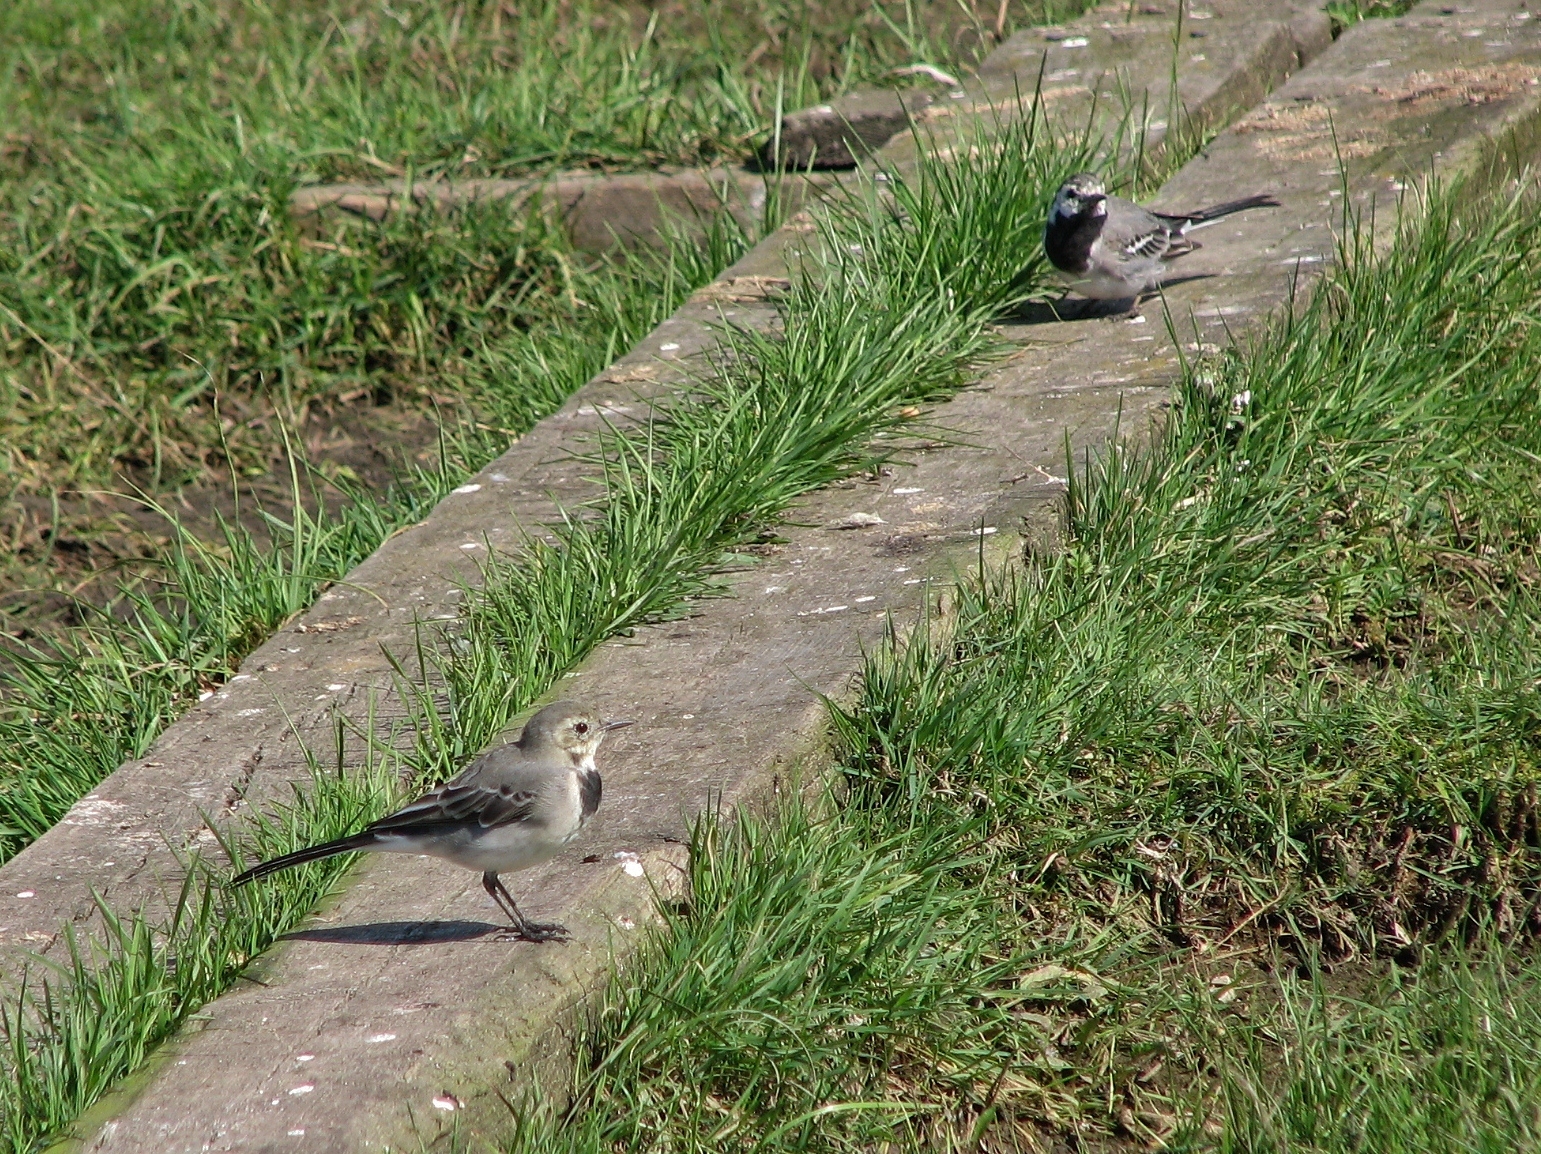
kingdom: Animalia
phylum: Chordata
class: Aves
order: Passeriformes
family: Motacillidae
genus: Motacilla
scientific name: Motacilla alba
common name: White wagtail
